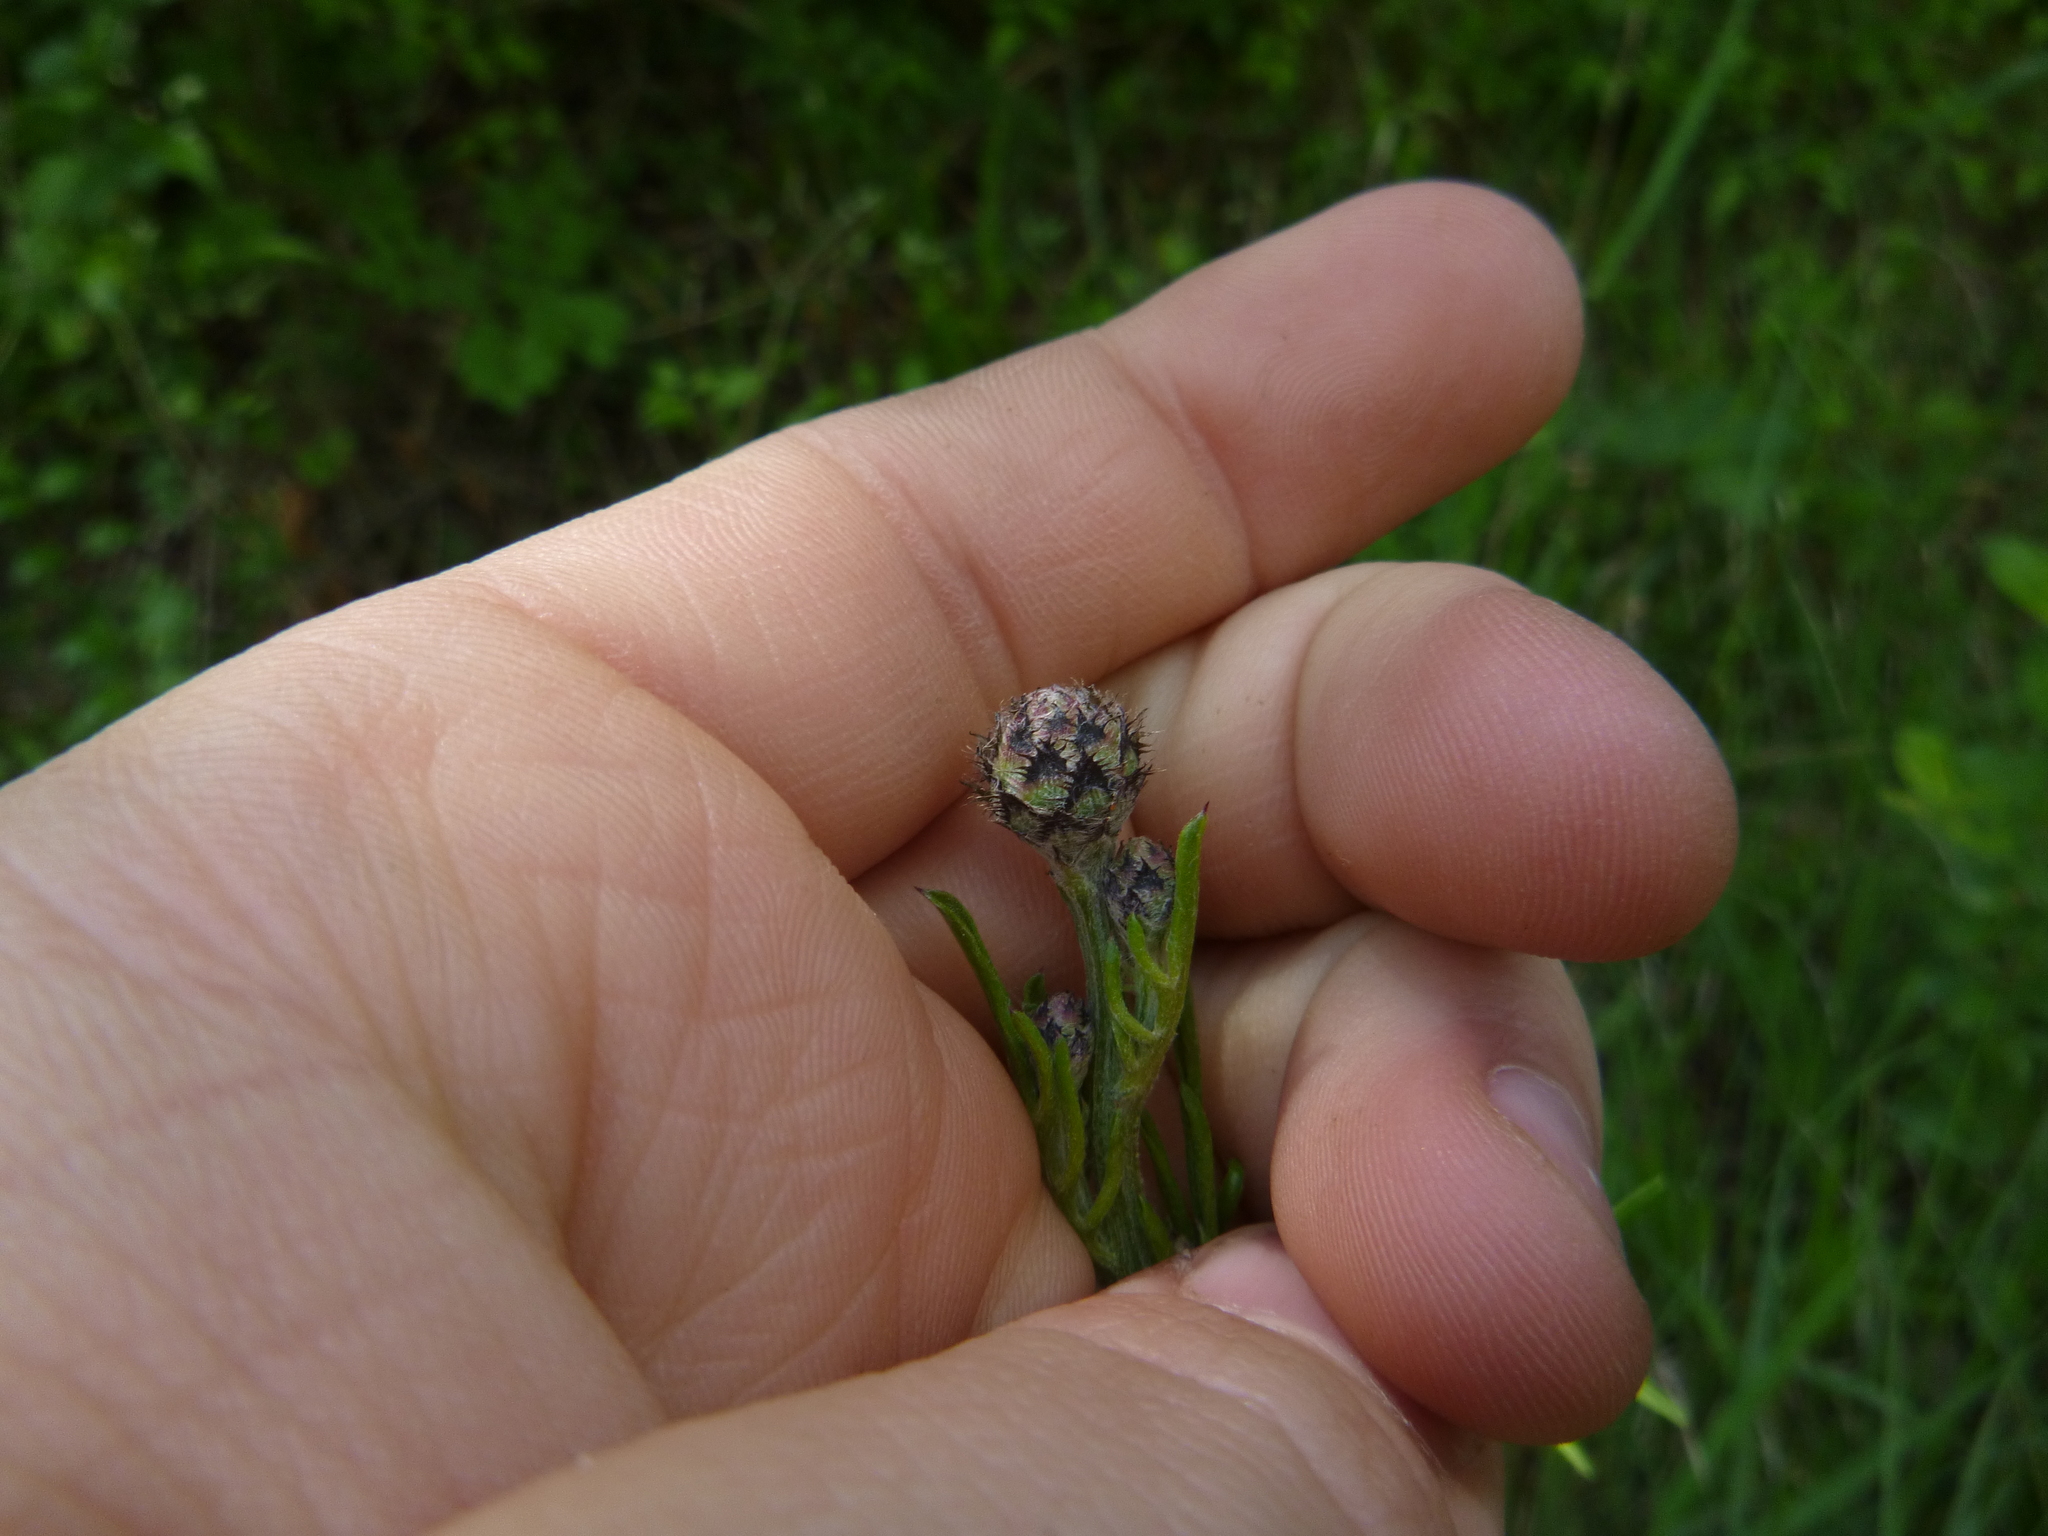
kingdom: Plantae
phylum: Tracheophyta
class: Magnoliopsida
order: Asterales
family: Asteraceae
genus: Centaurea
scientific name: Centaurea scabiosa
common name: Greater knapweed
